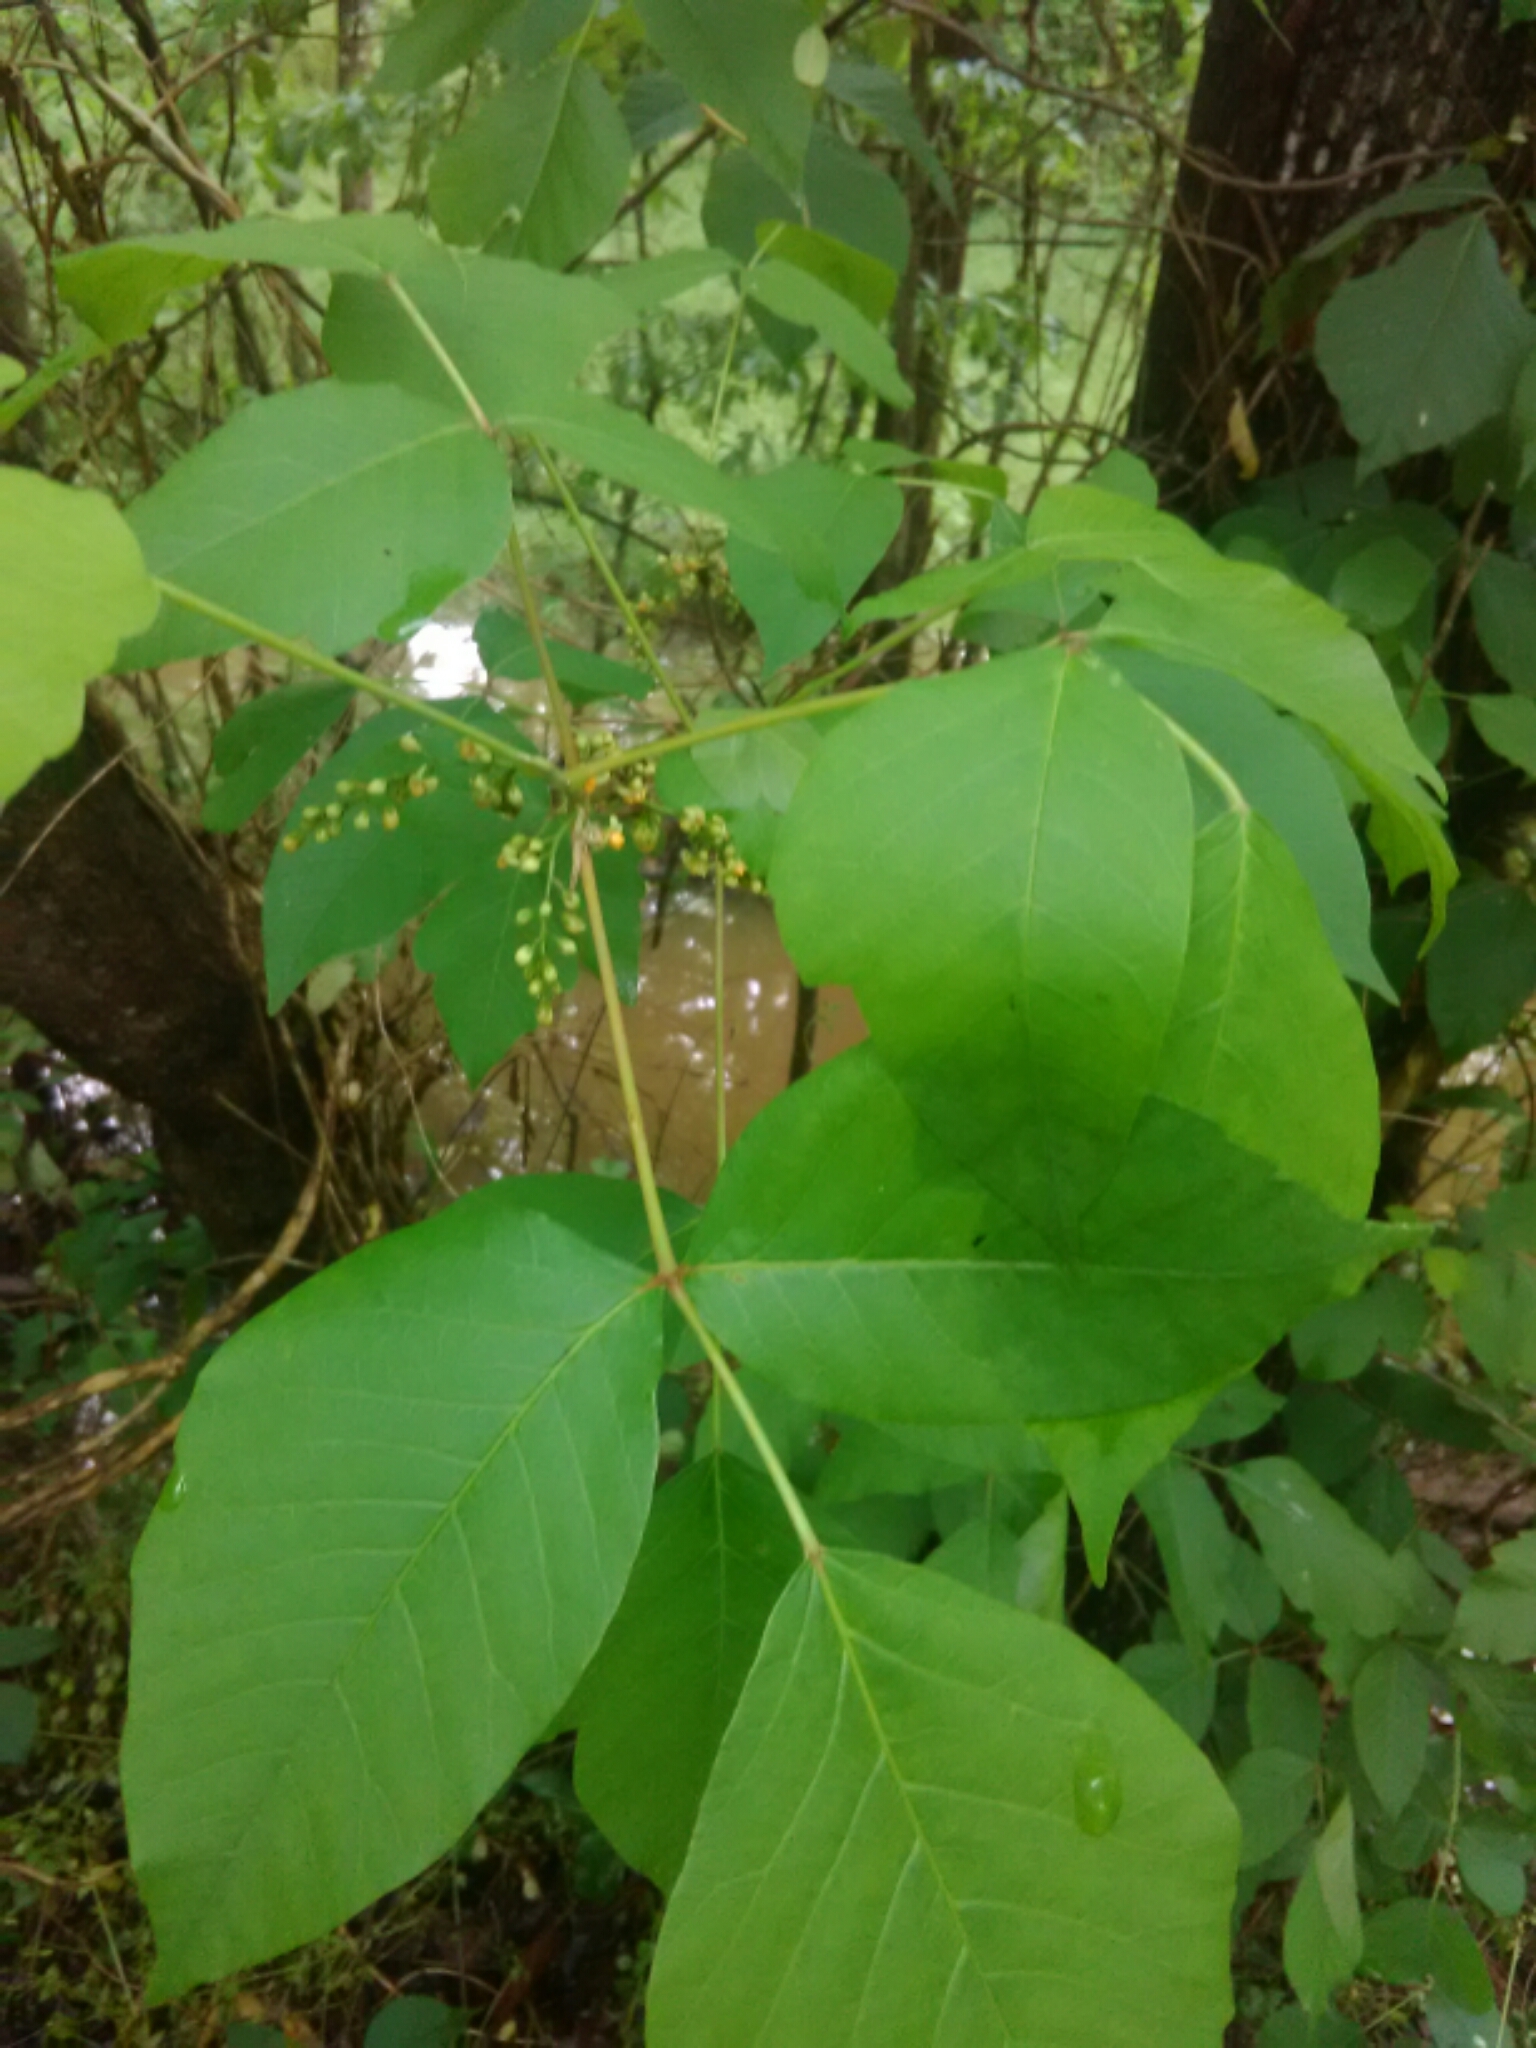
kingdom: Plantae
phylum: Tracheophyta
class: Magnoliopsida
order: Sapindales
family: Anacardiaceae
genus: Toxicodendron
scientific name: Toxicodendron radicans
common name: Poison ivy
